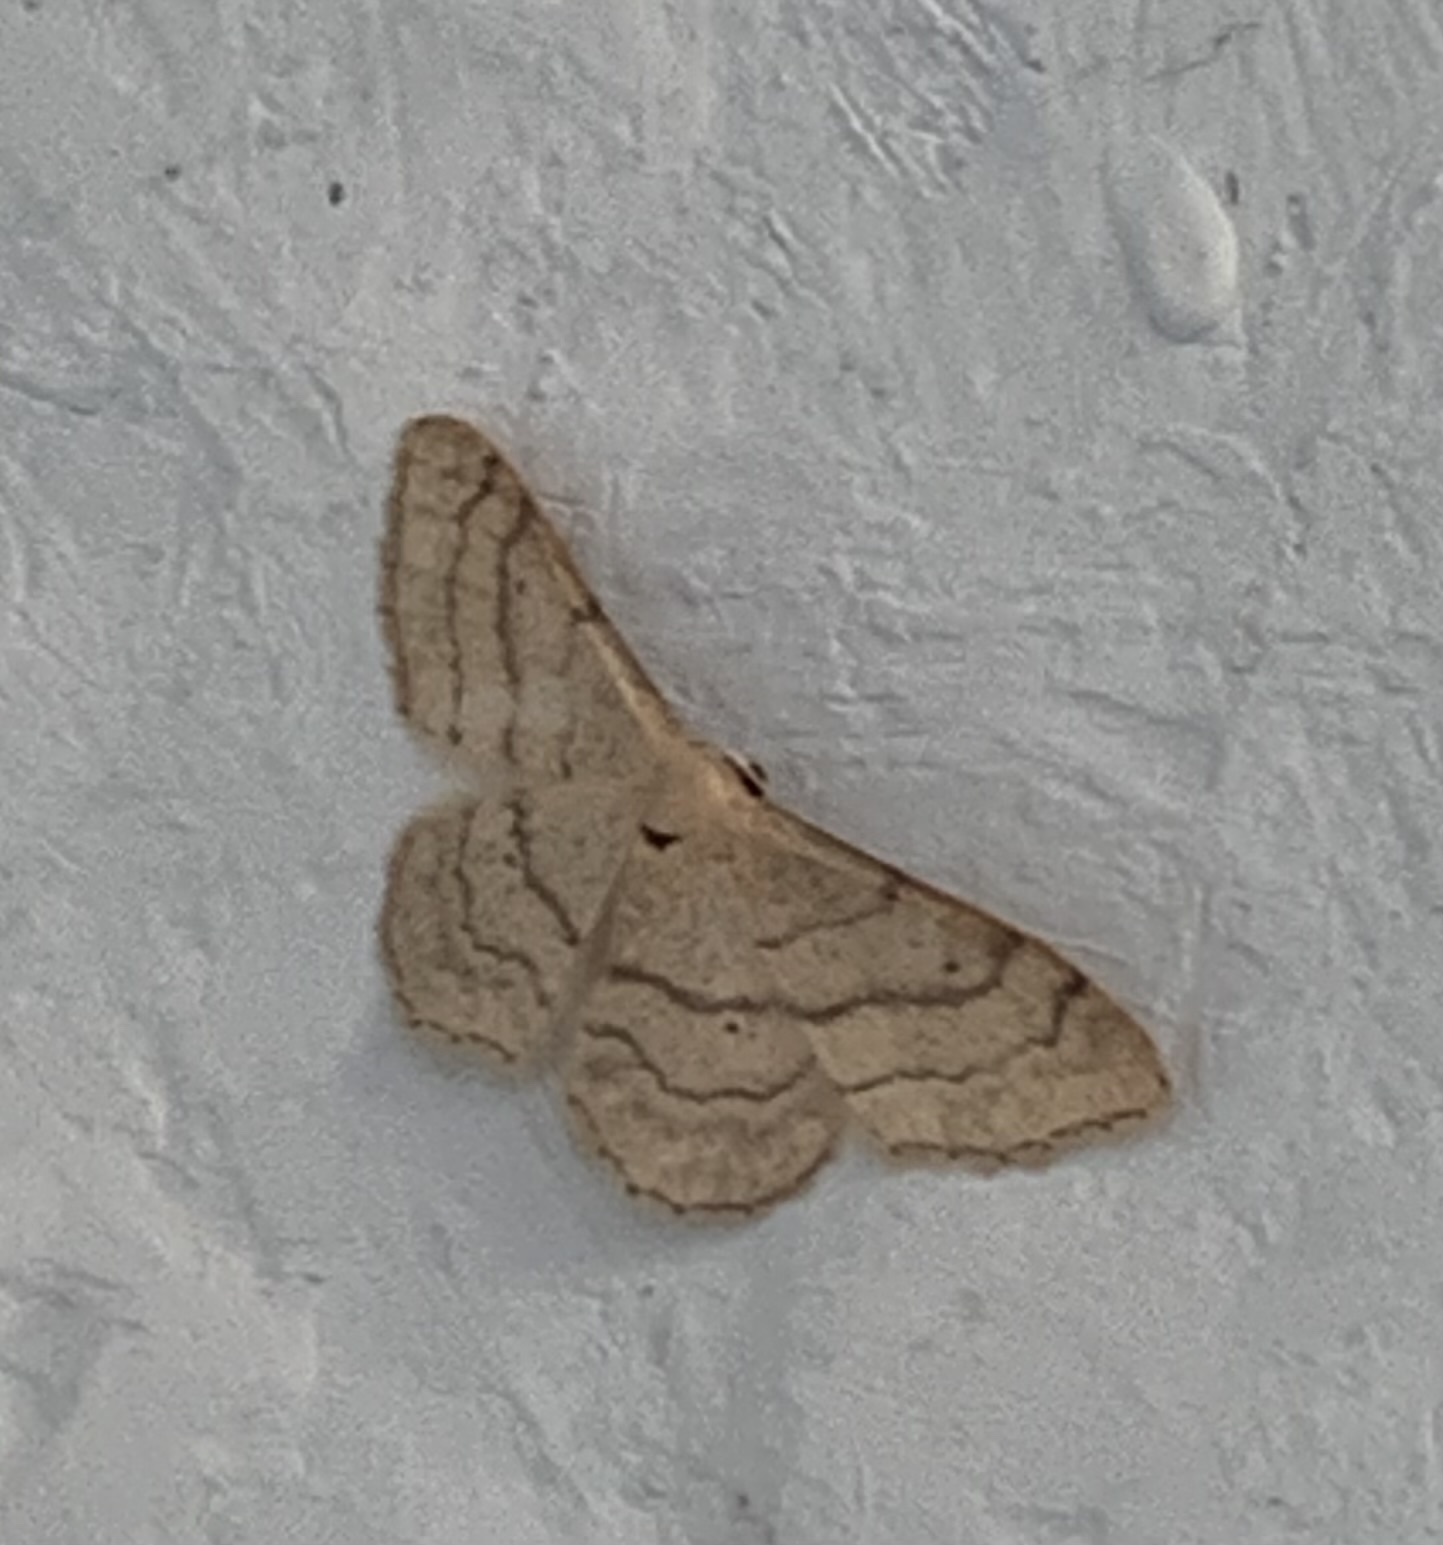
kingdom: Animalia
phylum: Arthropoda
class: Insecta
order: Lepidoptera
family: Geometridae
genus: Idaea
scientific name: Idaea aversata
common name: Riband wave
